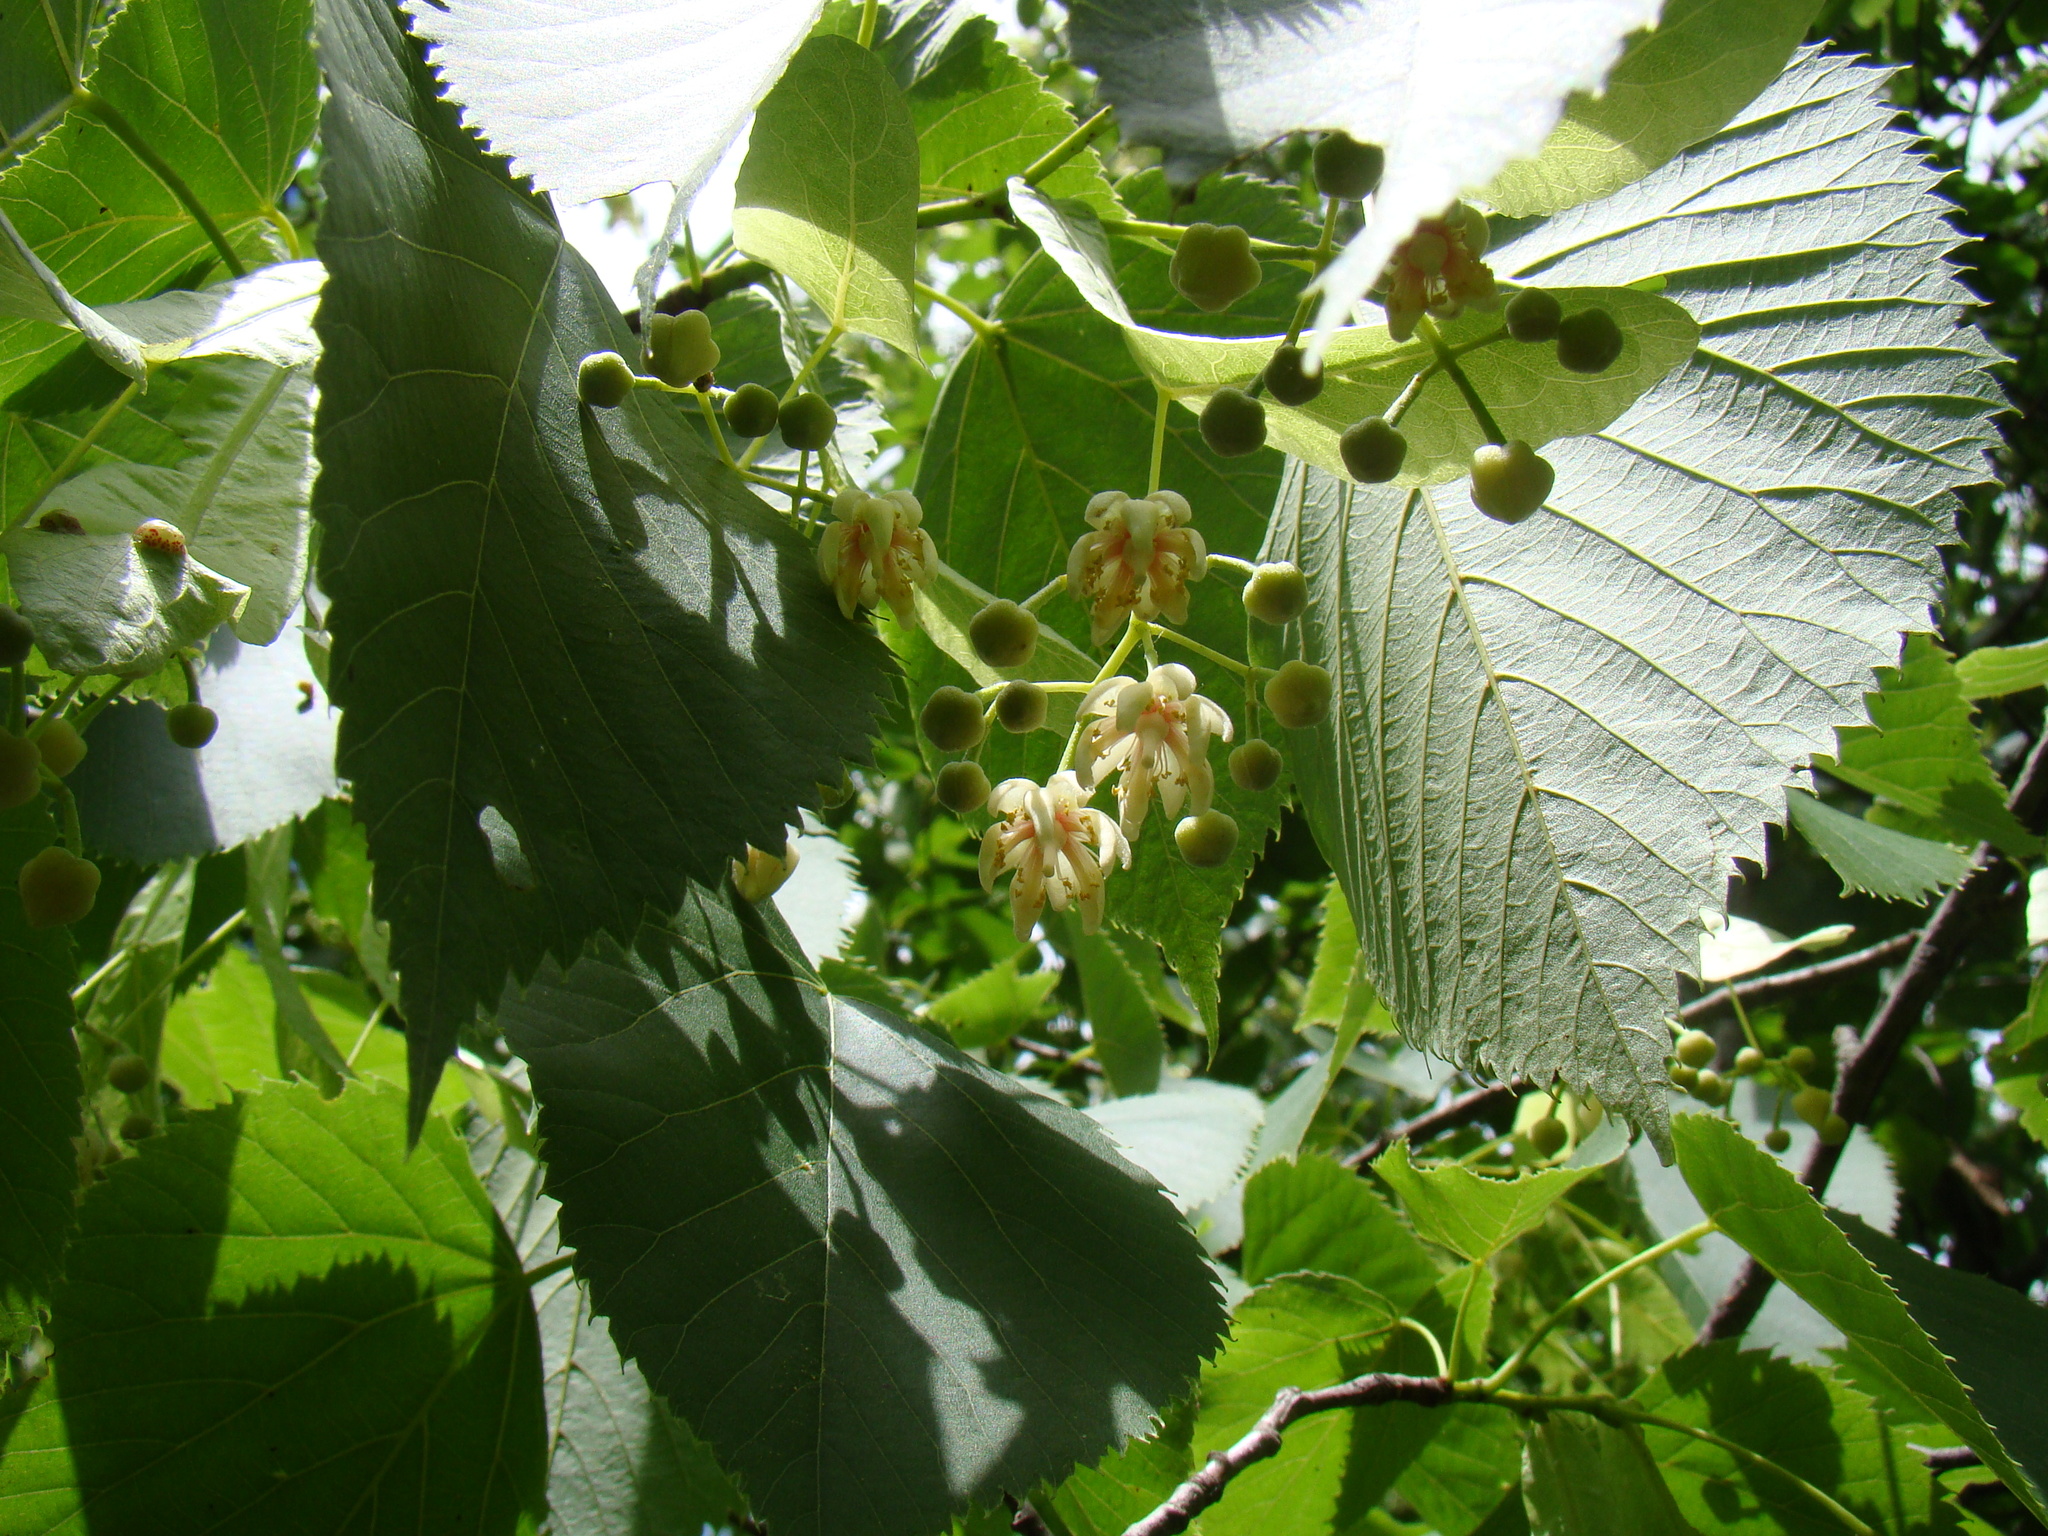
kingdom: Plantae
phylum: Tracheophyta
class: Magnoliopsida
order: Malvales
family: Malvaceae
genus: Tilia
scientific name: Tilia americana
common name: Basswood
